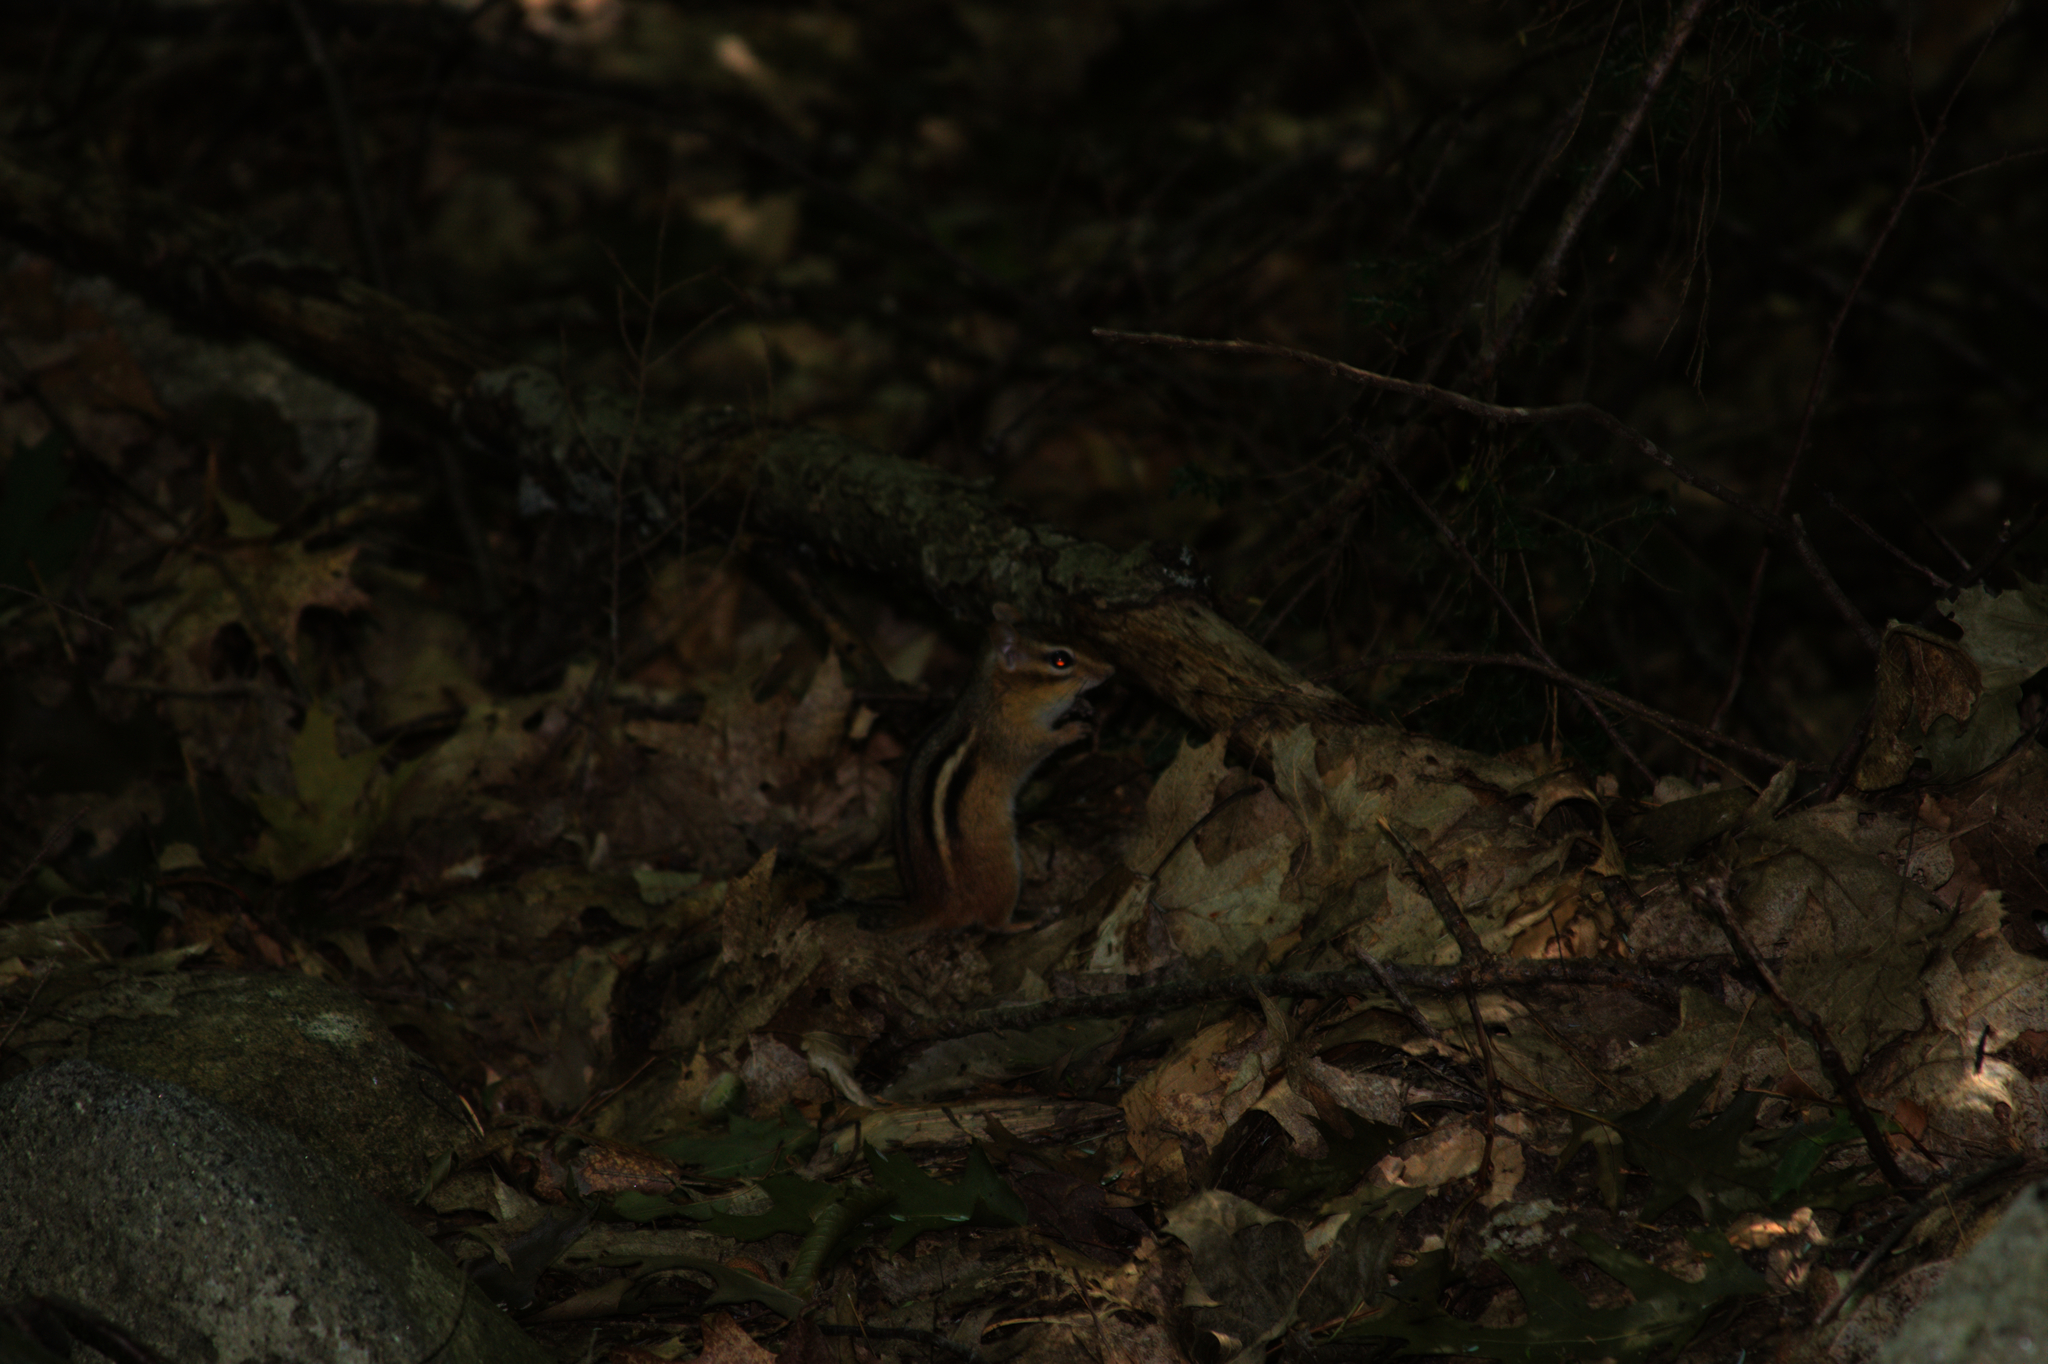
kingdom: Animalia
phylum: Chordata
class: Mammalia
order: Rodentia
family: Sciuridae
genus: Tamias
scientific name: Tamias striatus
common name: Eastern chipmunk
